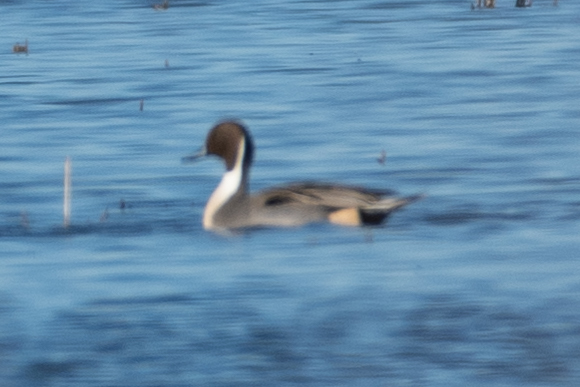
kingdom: Animalia
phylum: Chordata
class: Aves
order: Anseriformes
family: Anatidae
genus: Anas
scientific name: Anas acuta
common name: Northern pintail
